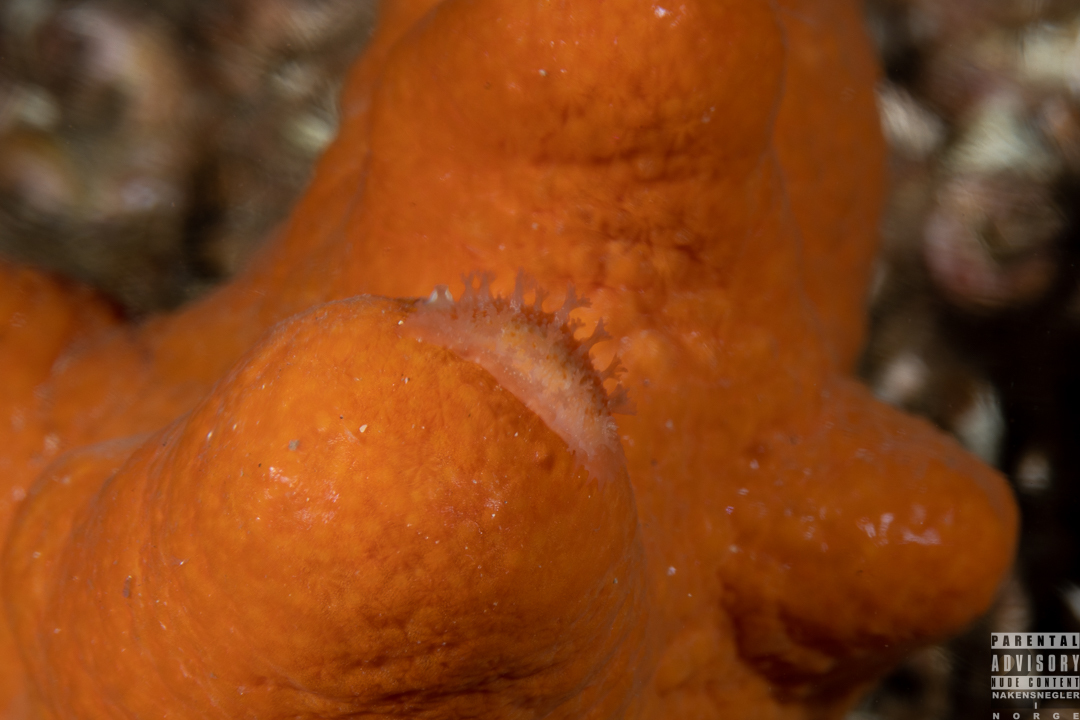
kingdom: Animalia
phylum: Mollusca
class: Gastropoda
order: Nudibranchia
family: Tritoniidae
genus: Tritonia
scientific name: Tritonia hombergii
